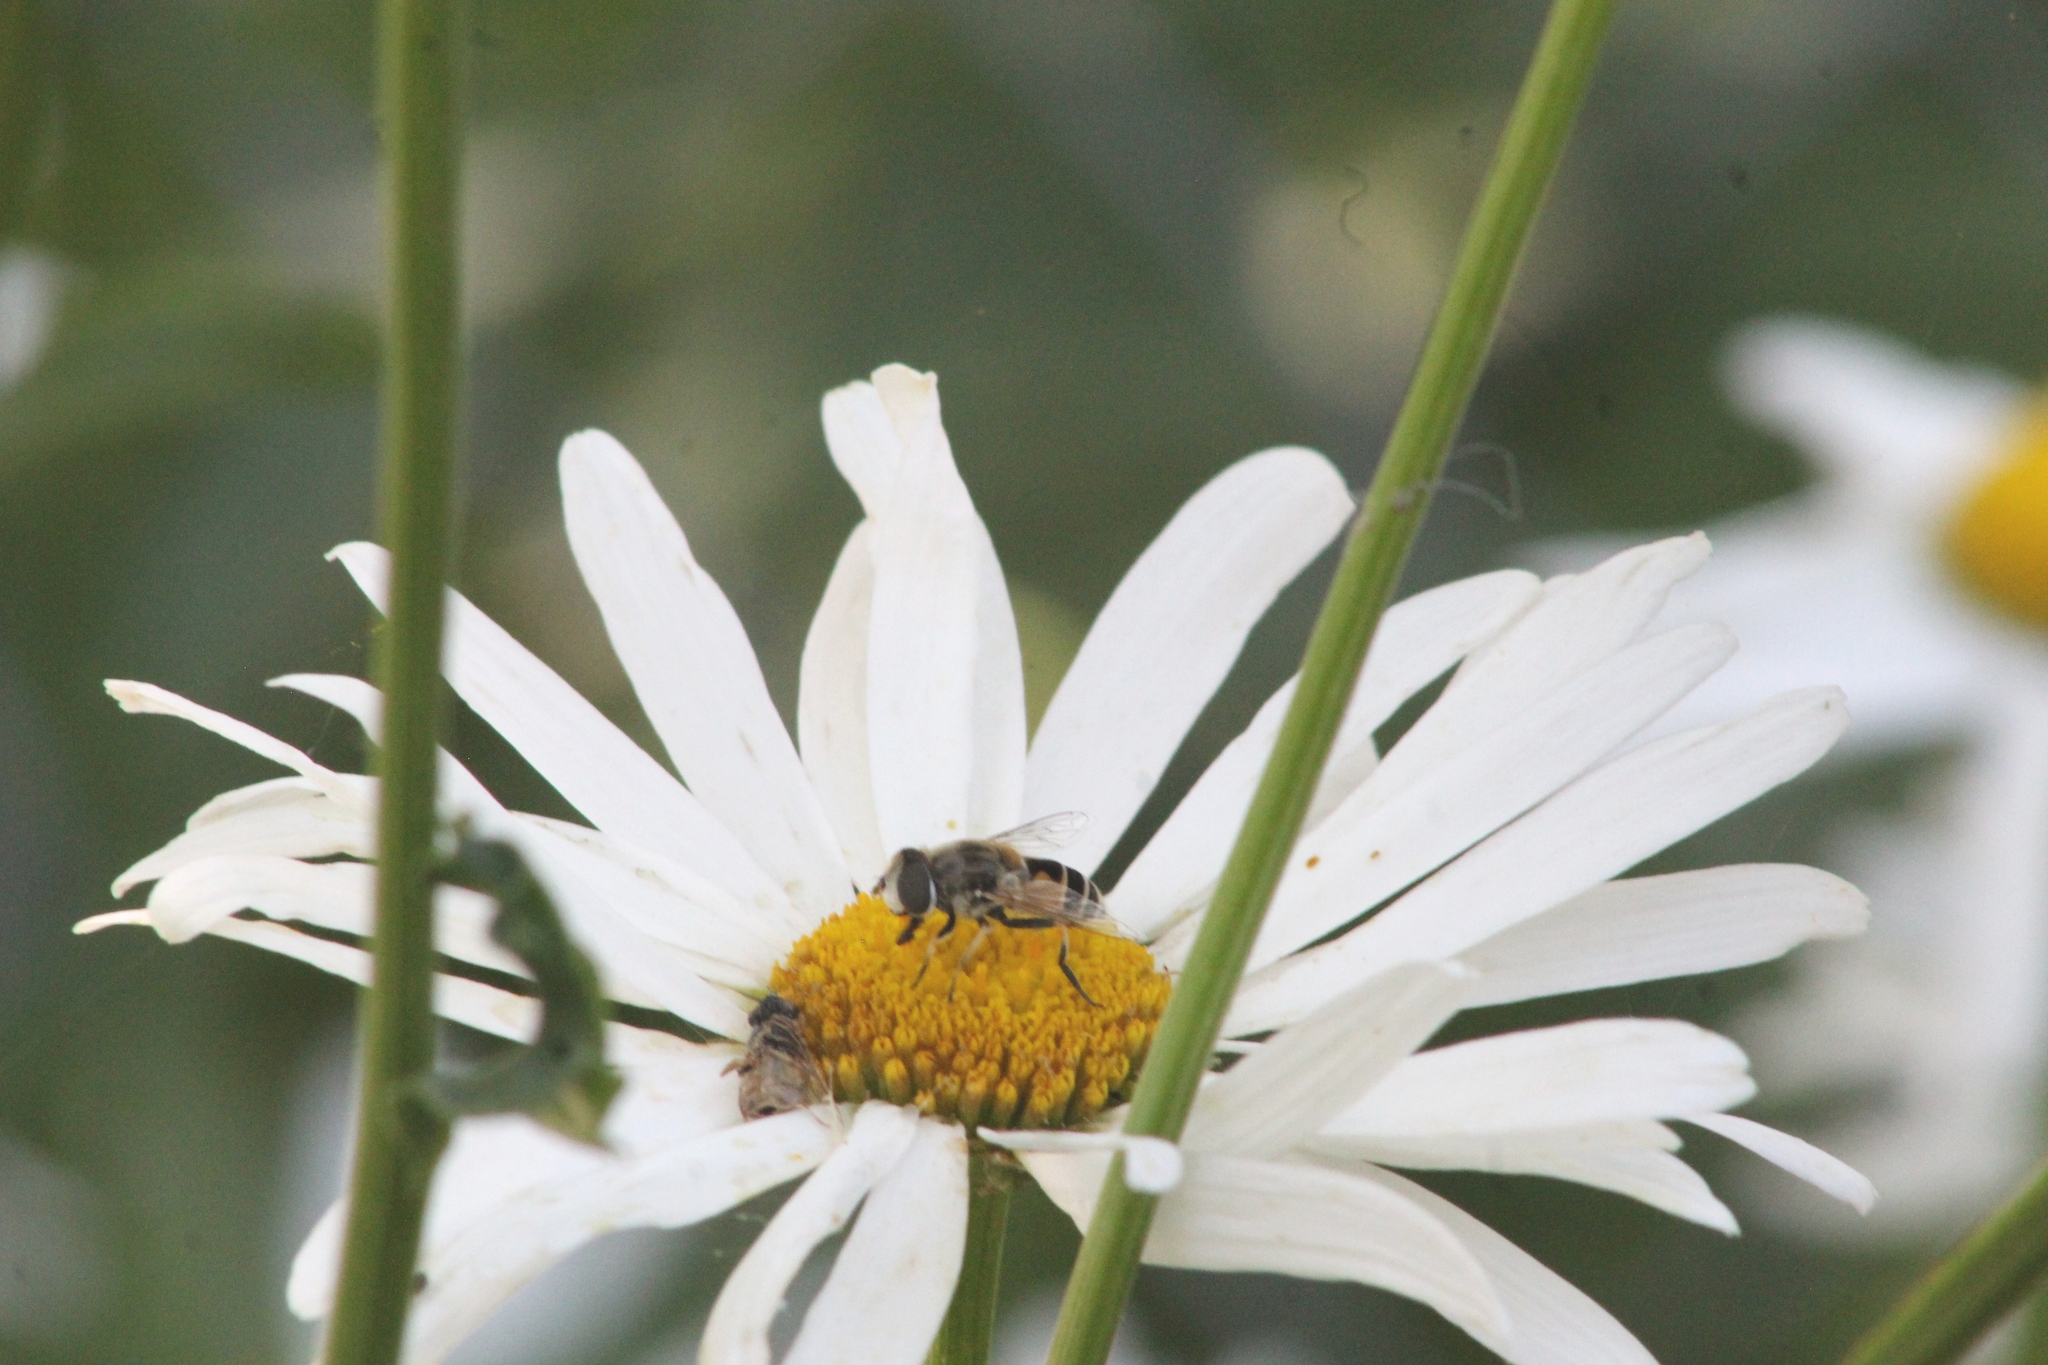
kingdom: Animalia
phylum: Arthropoda
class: Insecta
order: Diptera
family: Syrphidae
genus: Eristalis
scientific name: Eristalis arbustorum
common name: Hover fly
